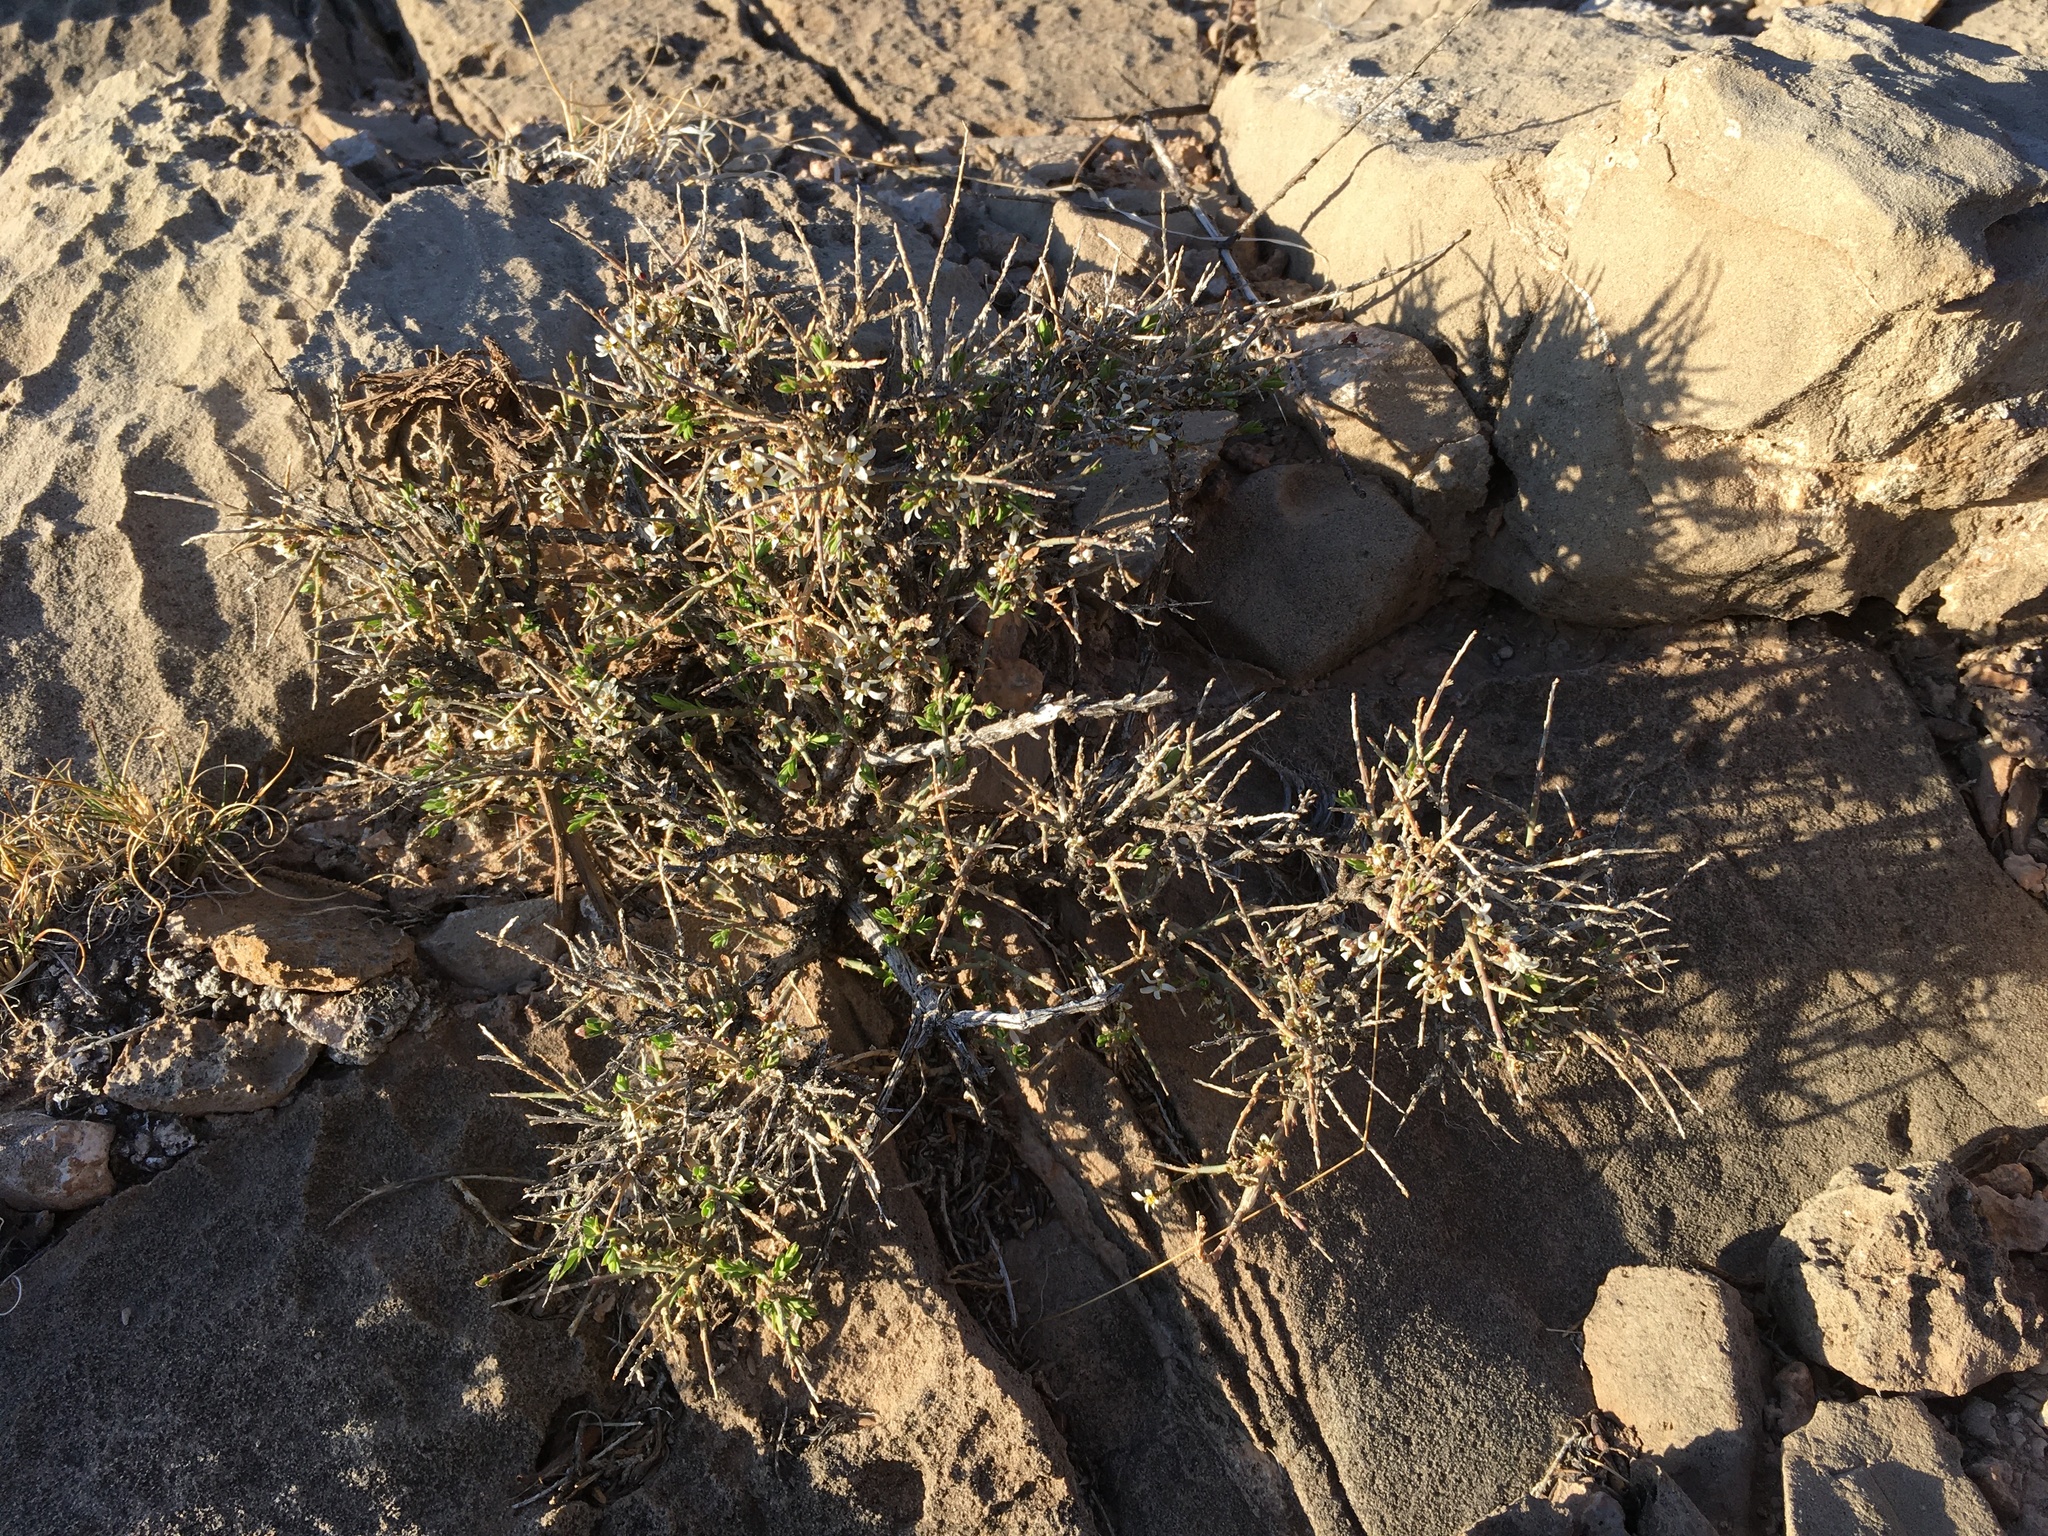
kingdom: Plantae
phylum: Tracheophyta
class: Magnoliopsida
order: Crossosomatales
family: Crossosomataceae
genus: Glossopetalon
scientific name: Glossopetalon spinescens
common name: Spring greasebush
